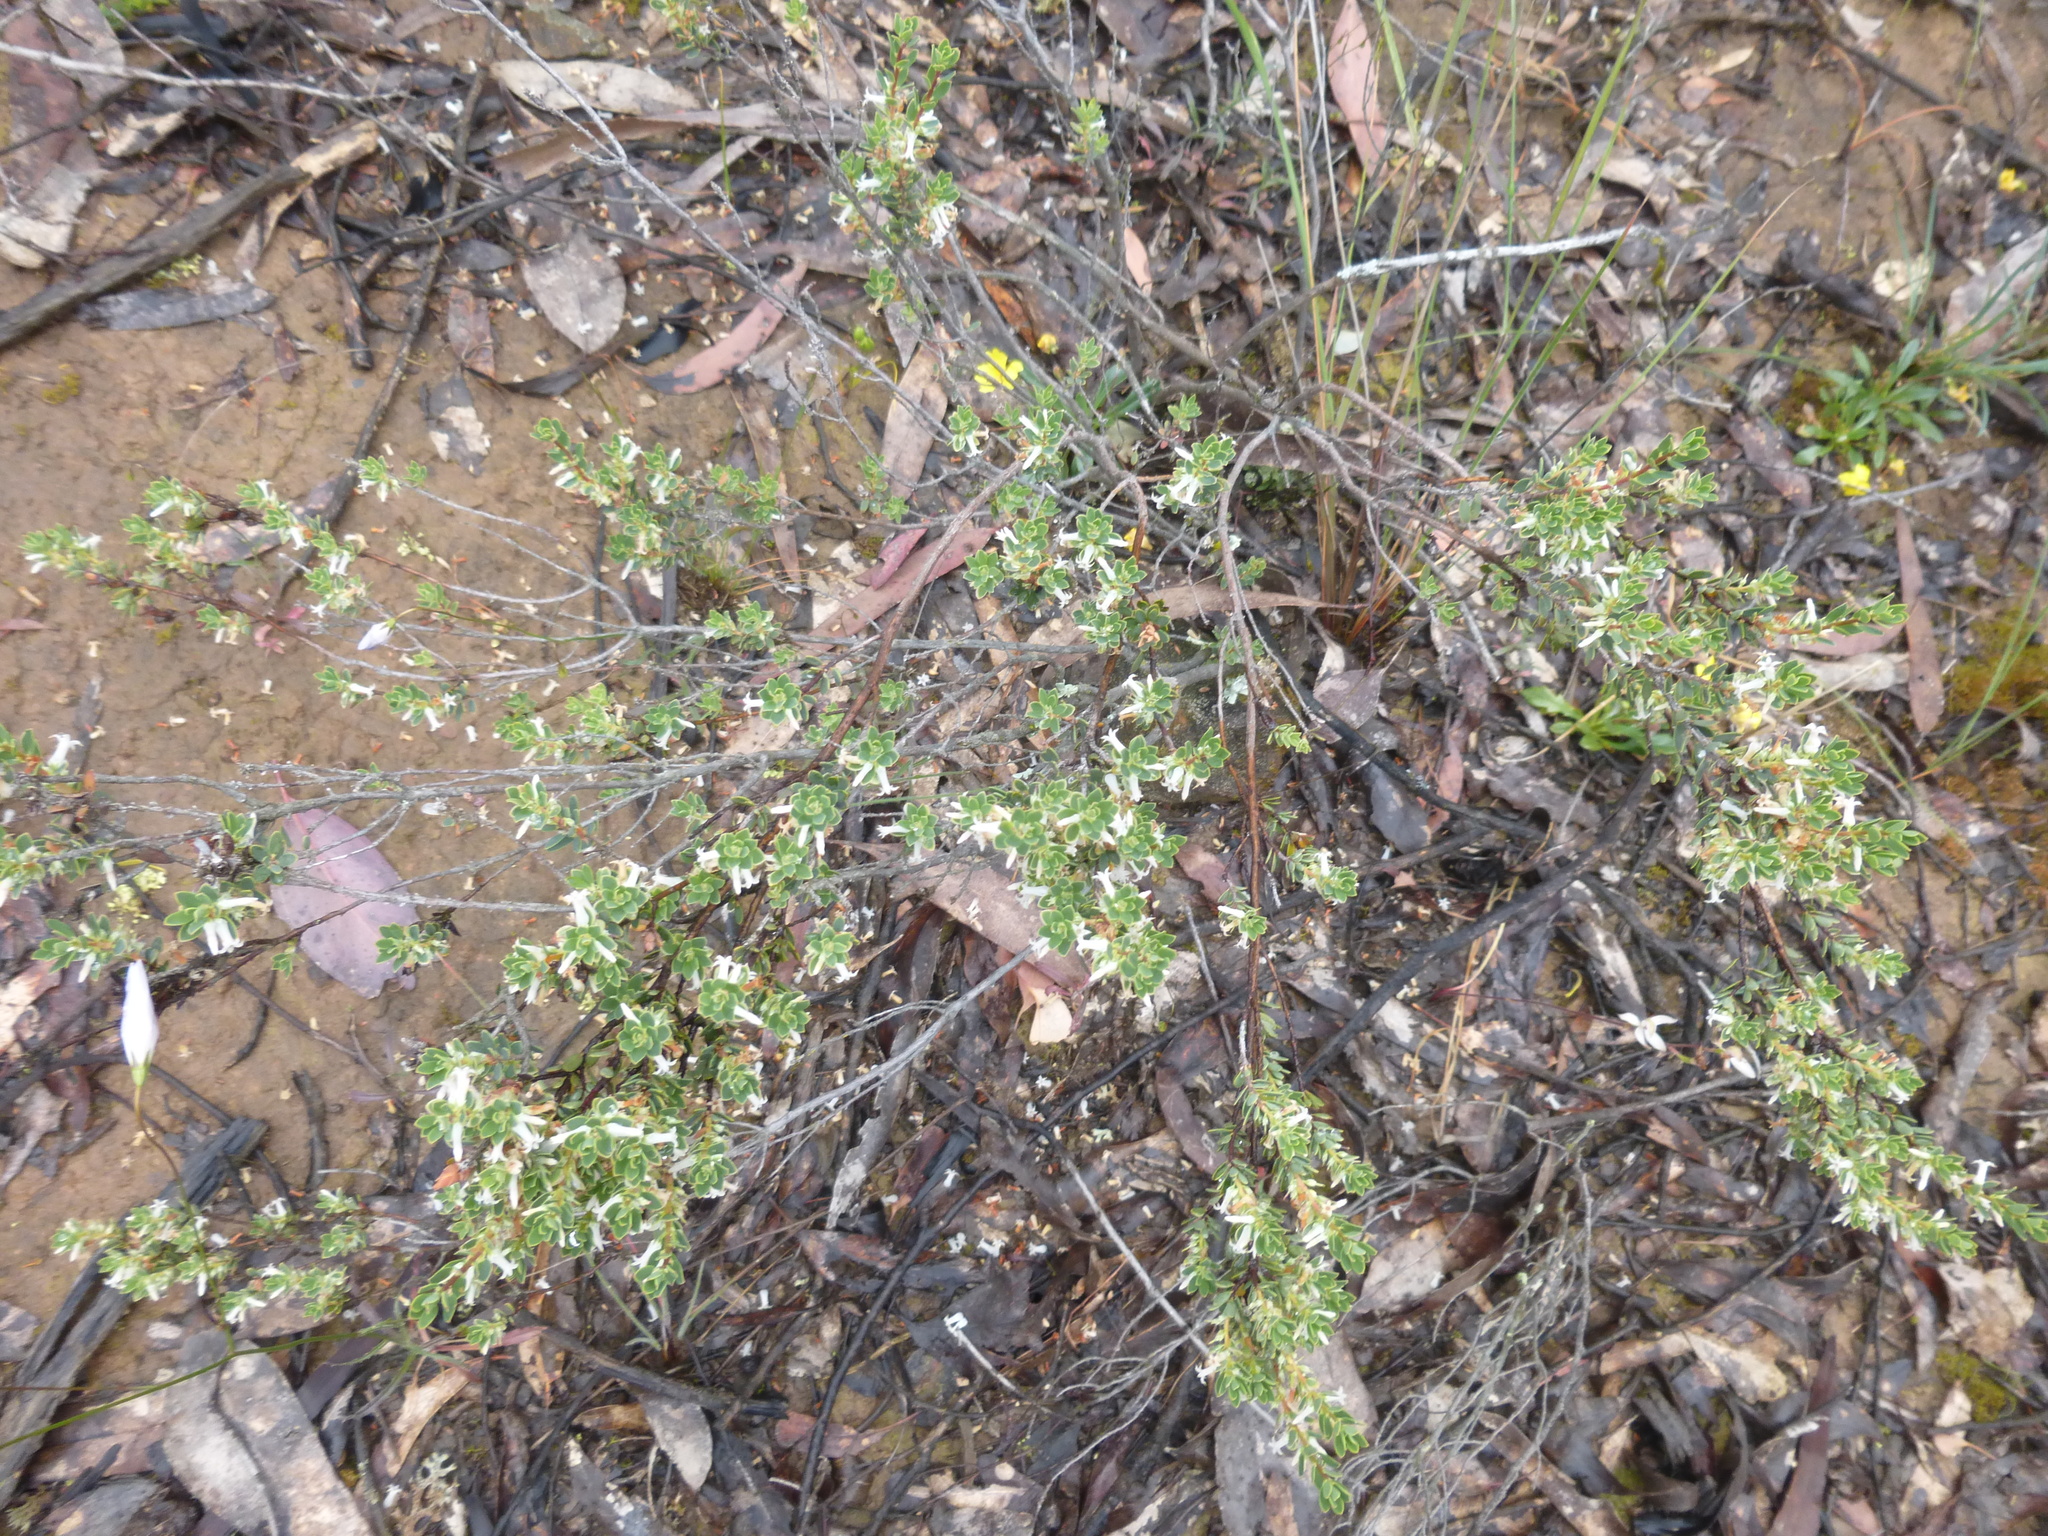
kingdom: Plantae
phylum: Tracheophyta
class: Magnoliopsida
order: Ericales
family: Ericaceae
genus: Brachyloma
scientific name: Brachyloma daphnoides
